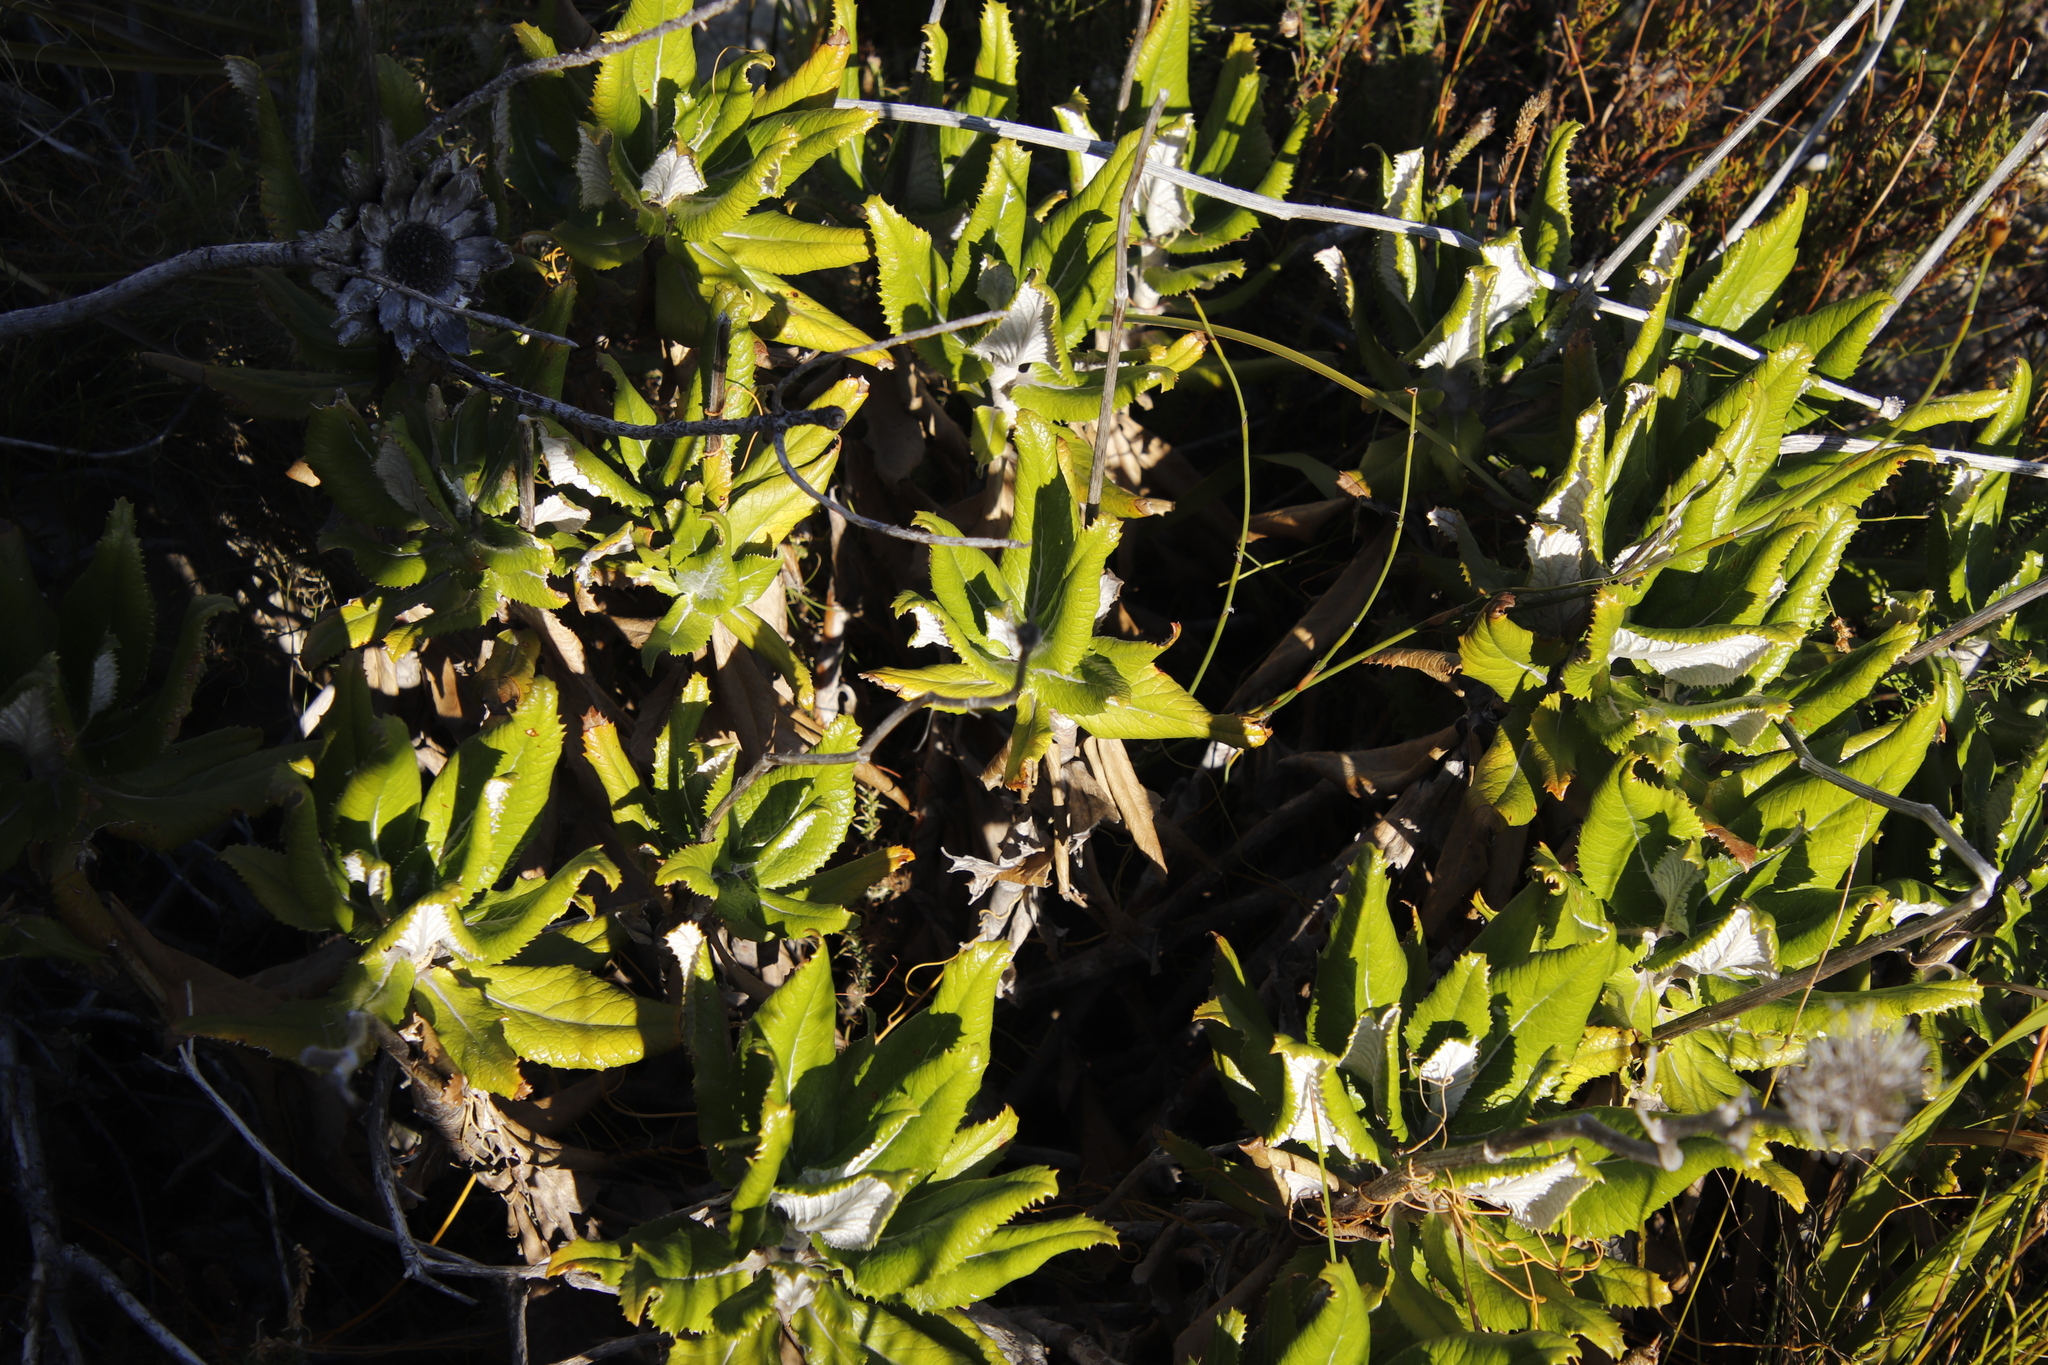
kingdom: Plantae
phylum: Tracheophyta
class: Magnoliopsida
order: Apiales
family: Apiaceae
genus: Hermas
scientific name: Hermas villosa
